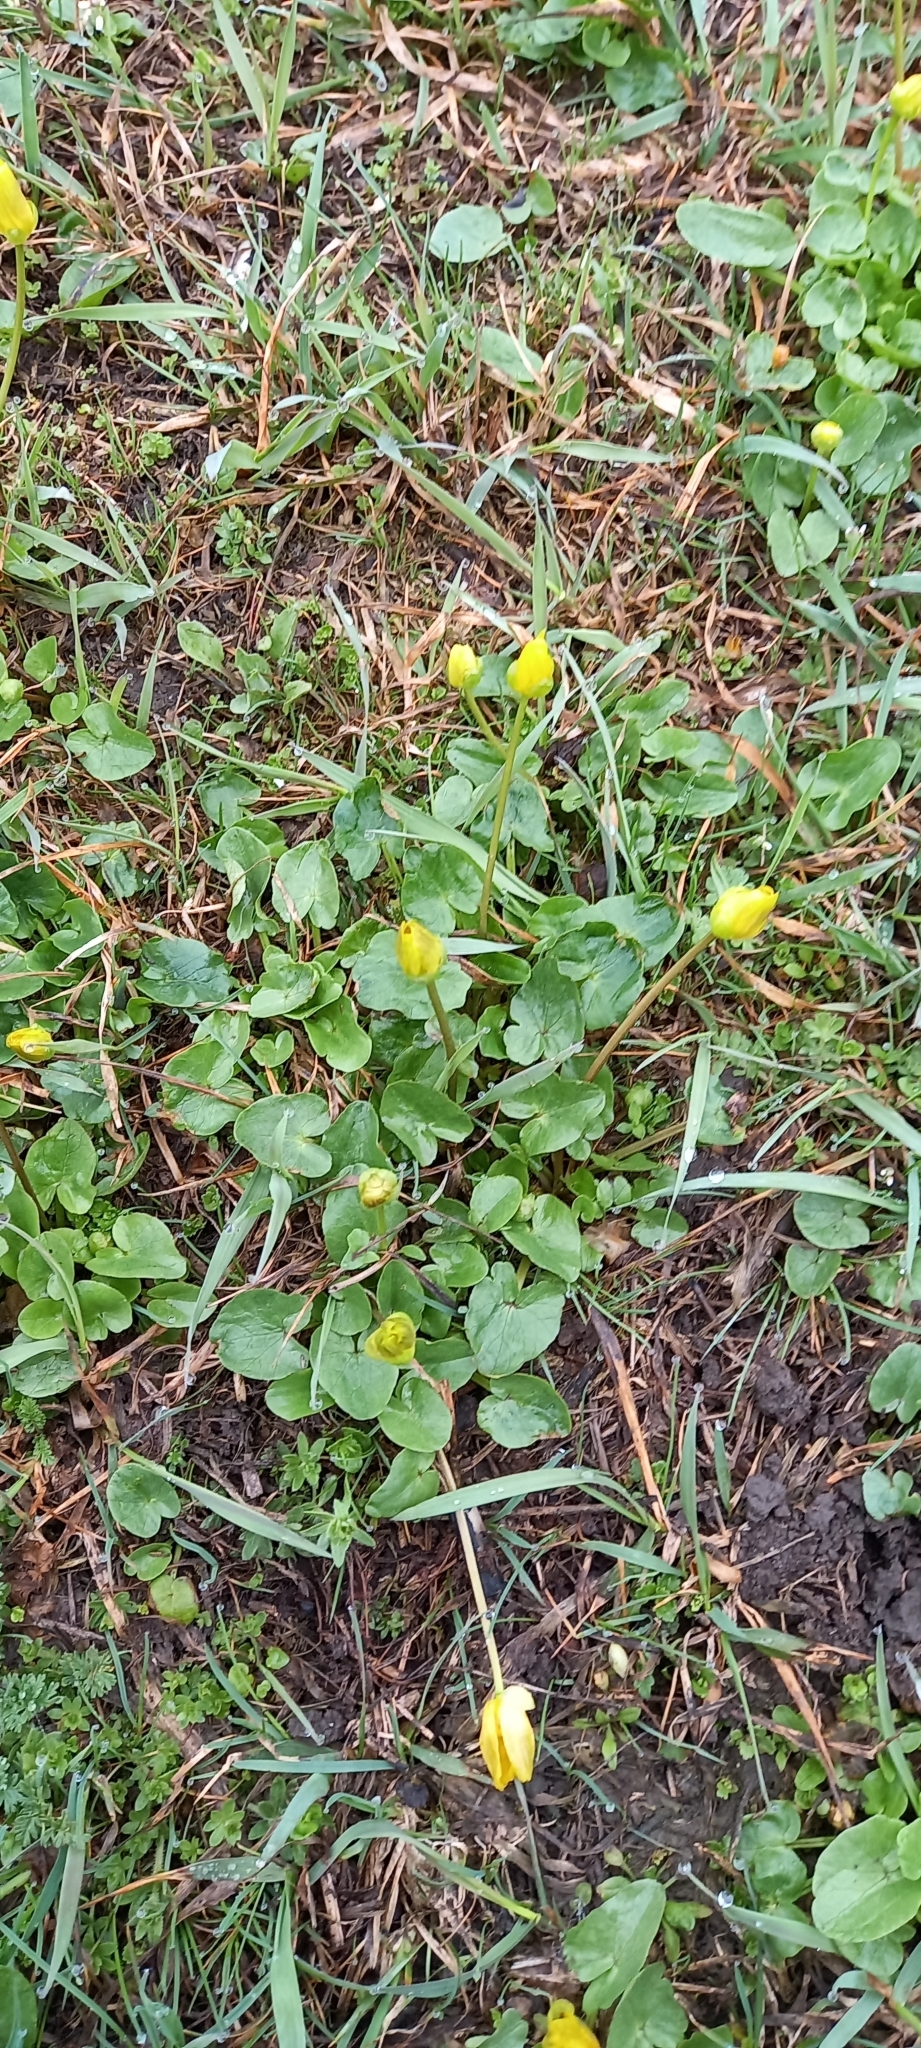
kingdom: Plantae
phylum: Tracheophyta
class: Magnoliopsida
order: Ranunculales
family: Ranunculaceae
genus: Ficaria
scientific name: Ficaria verna
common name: Lesser celandine
